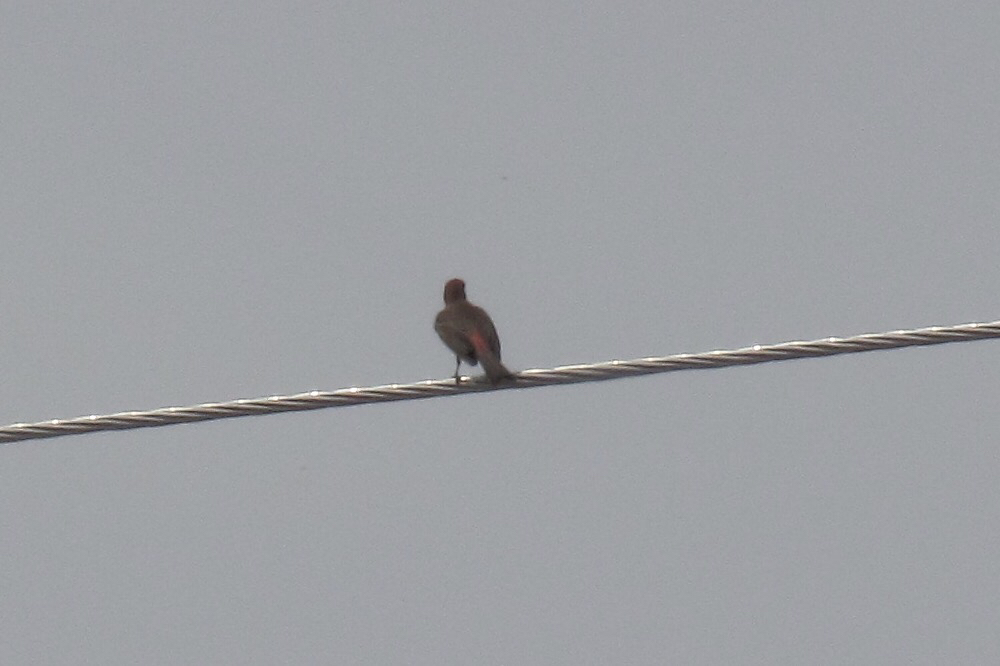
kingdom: Animalia
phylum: Chordata
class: Aves
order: Passeriformes
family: Fringillidae
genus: Haemorhous
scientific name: Haemorhous mexicanus
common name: House finch
